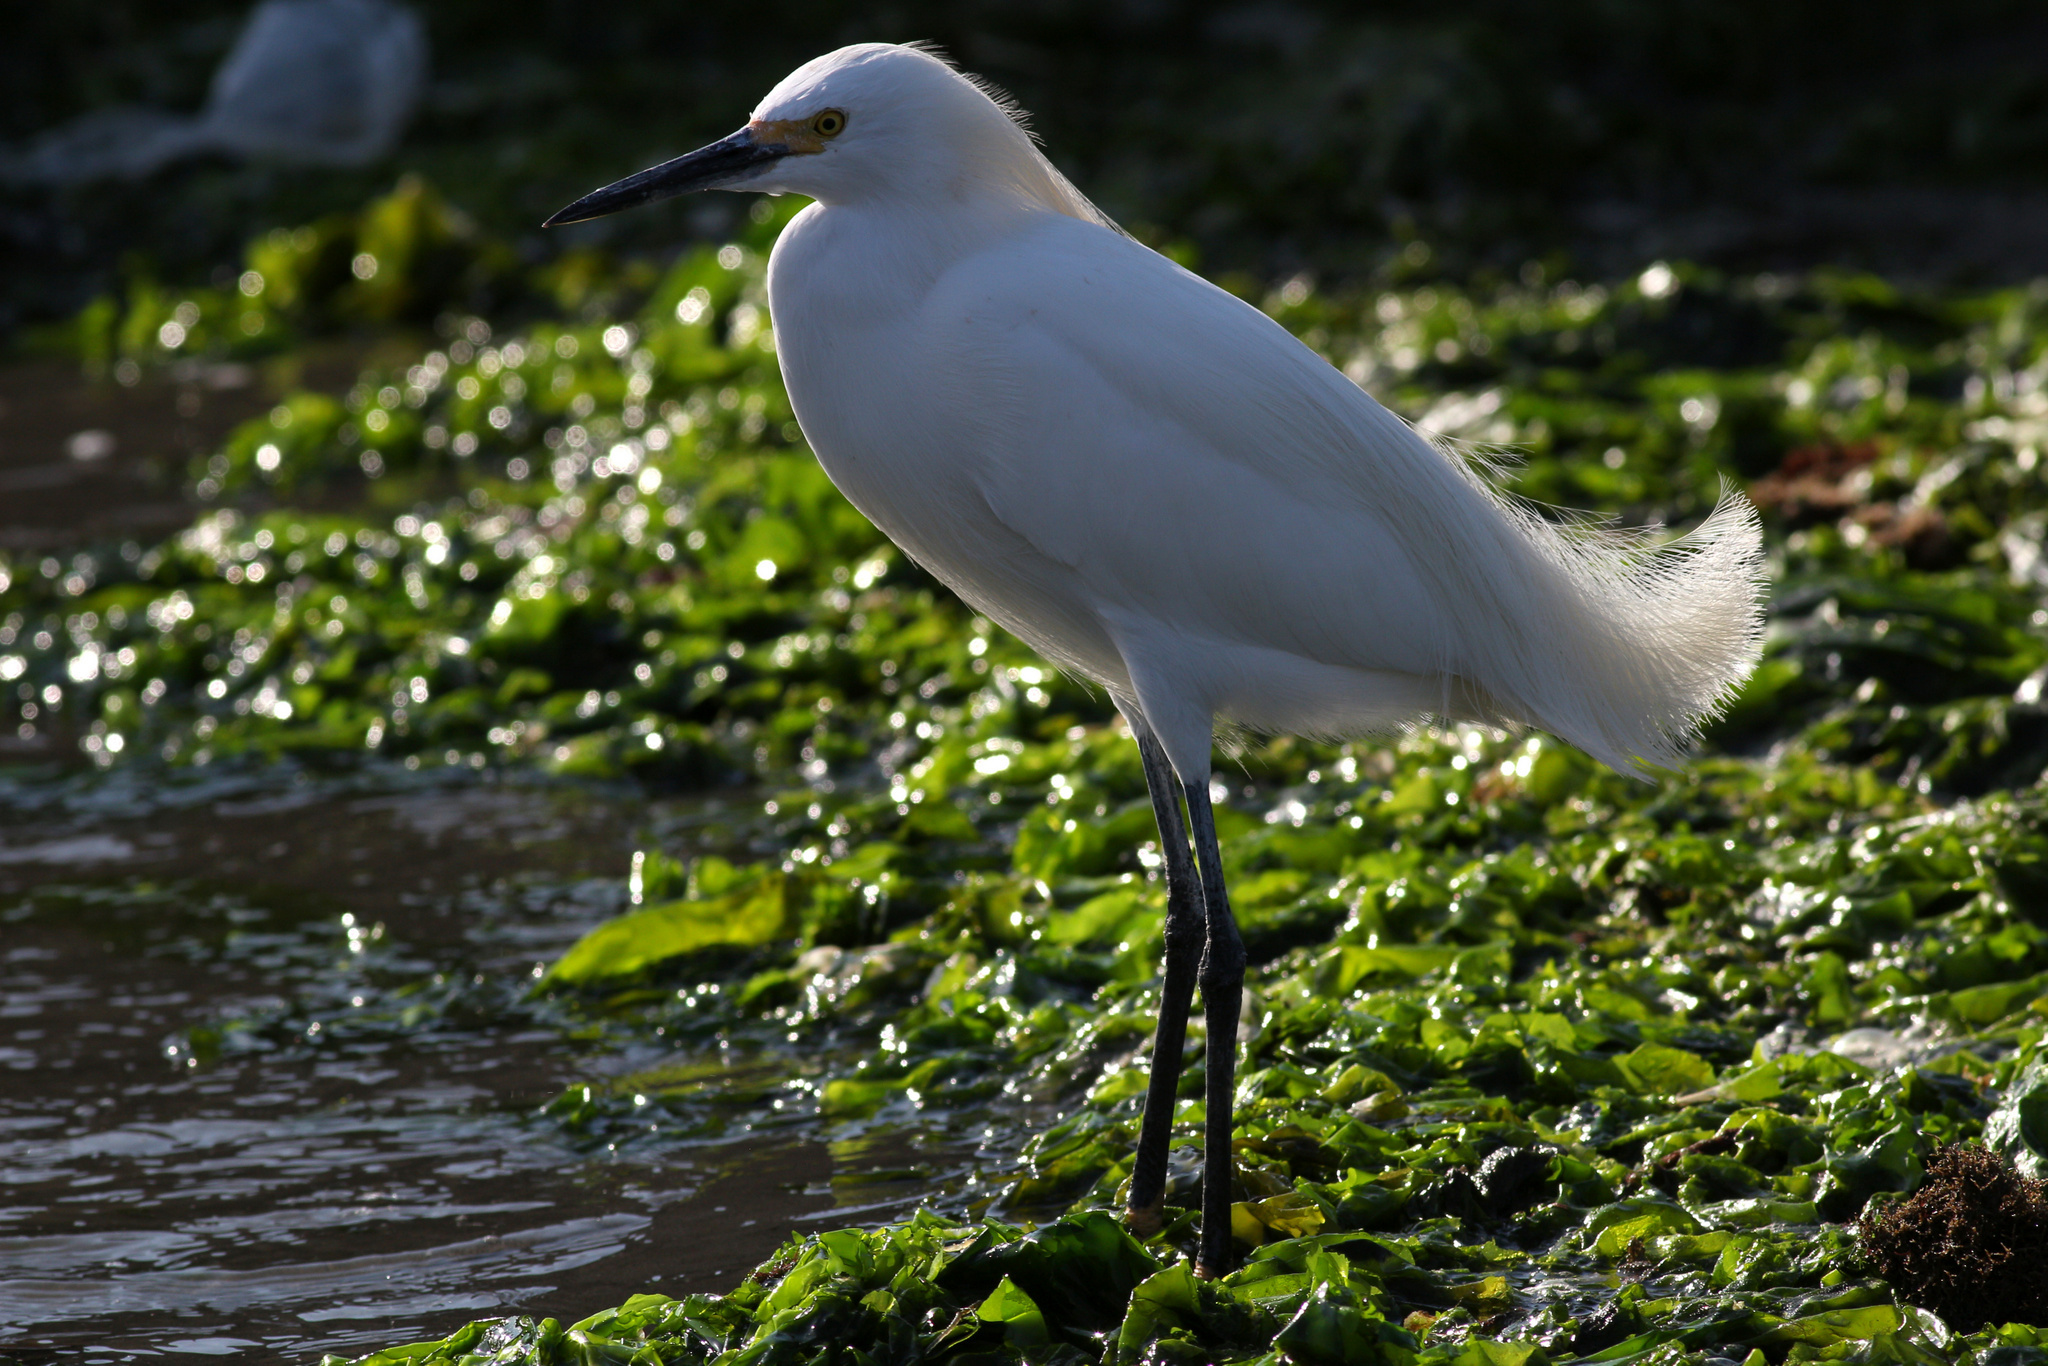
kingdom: Animalia
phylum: Chordata
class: Aves
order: Pelecaniformes
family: Ardeidae
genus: Egretta
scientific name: Egretta thula
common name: Snowy egret
